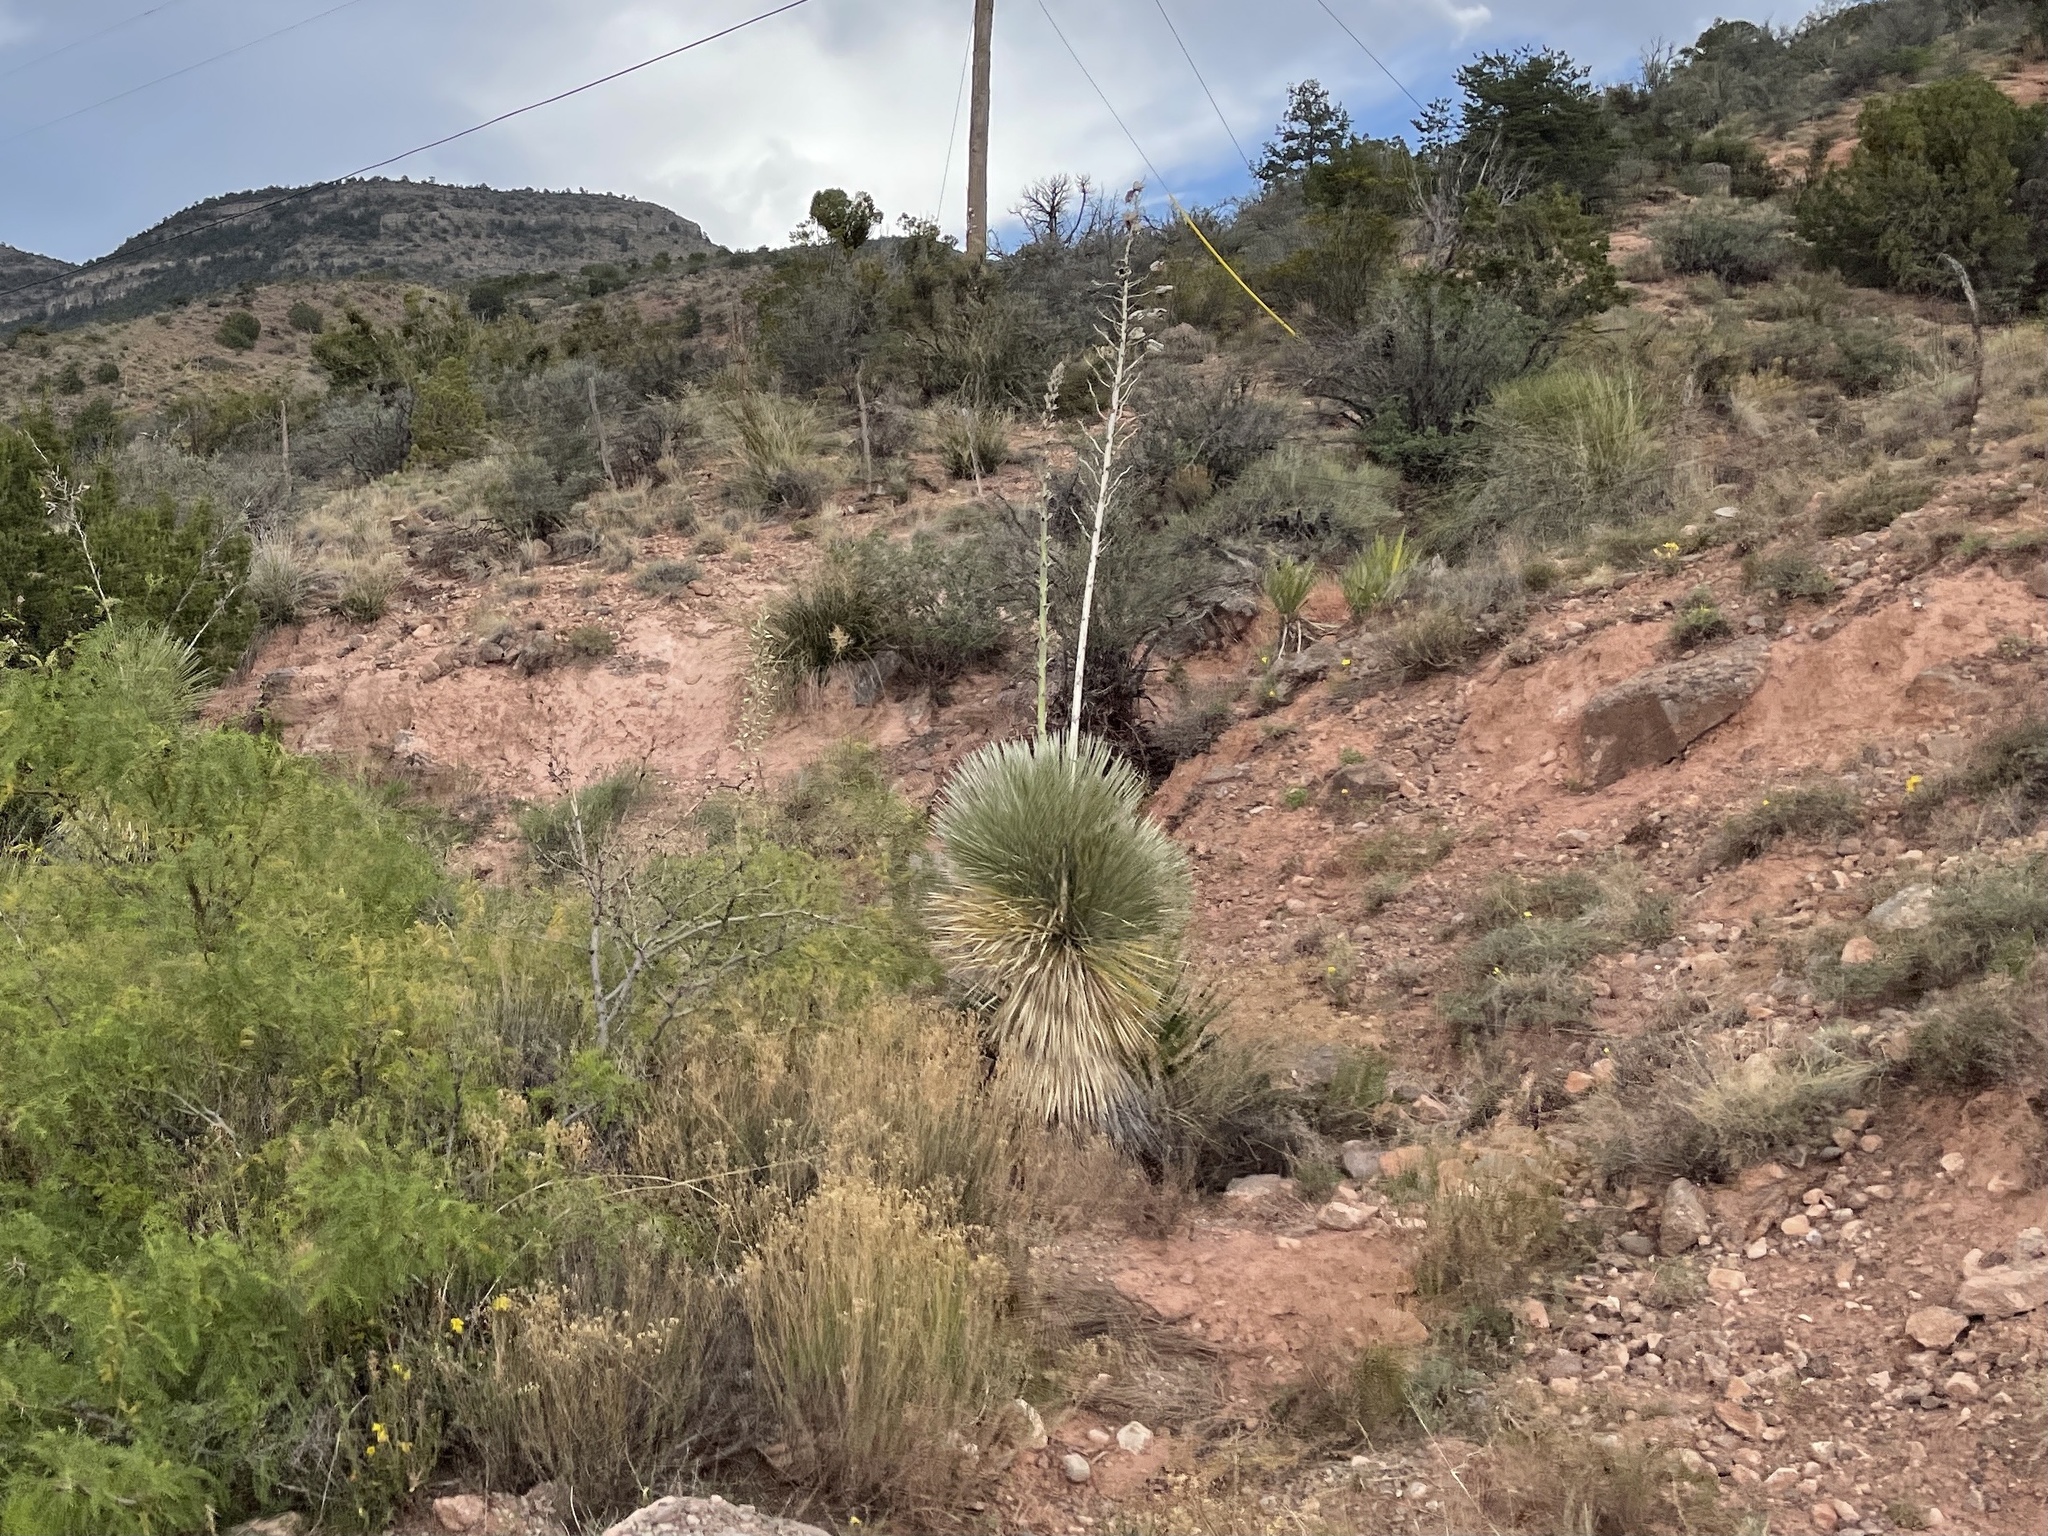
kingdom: Plantae
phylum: Tracheophyta
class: Liliopsida
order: Asparagales
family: Asparagaceae
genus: Yucca
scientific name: Yucca elata
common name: Palmella
